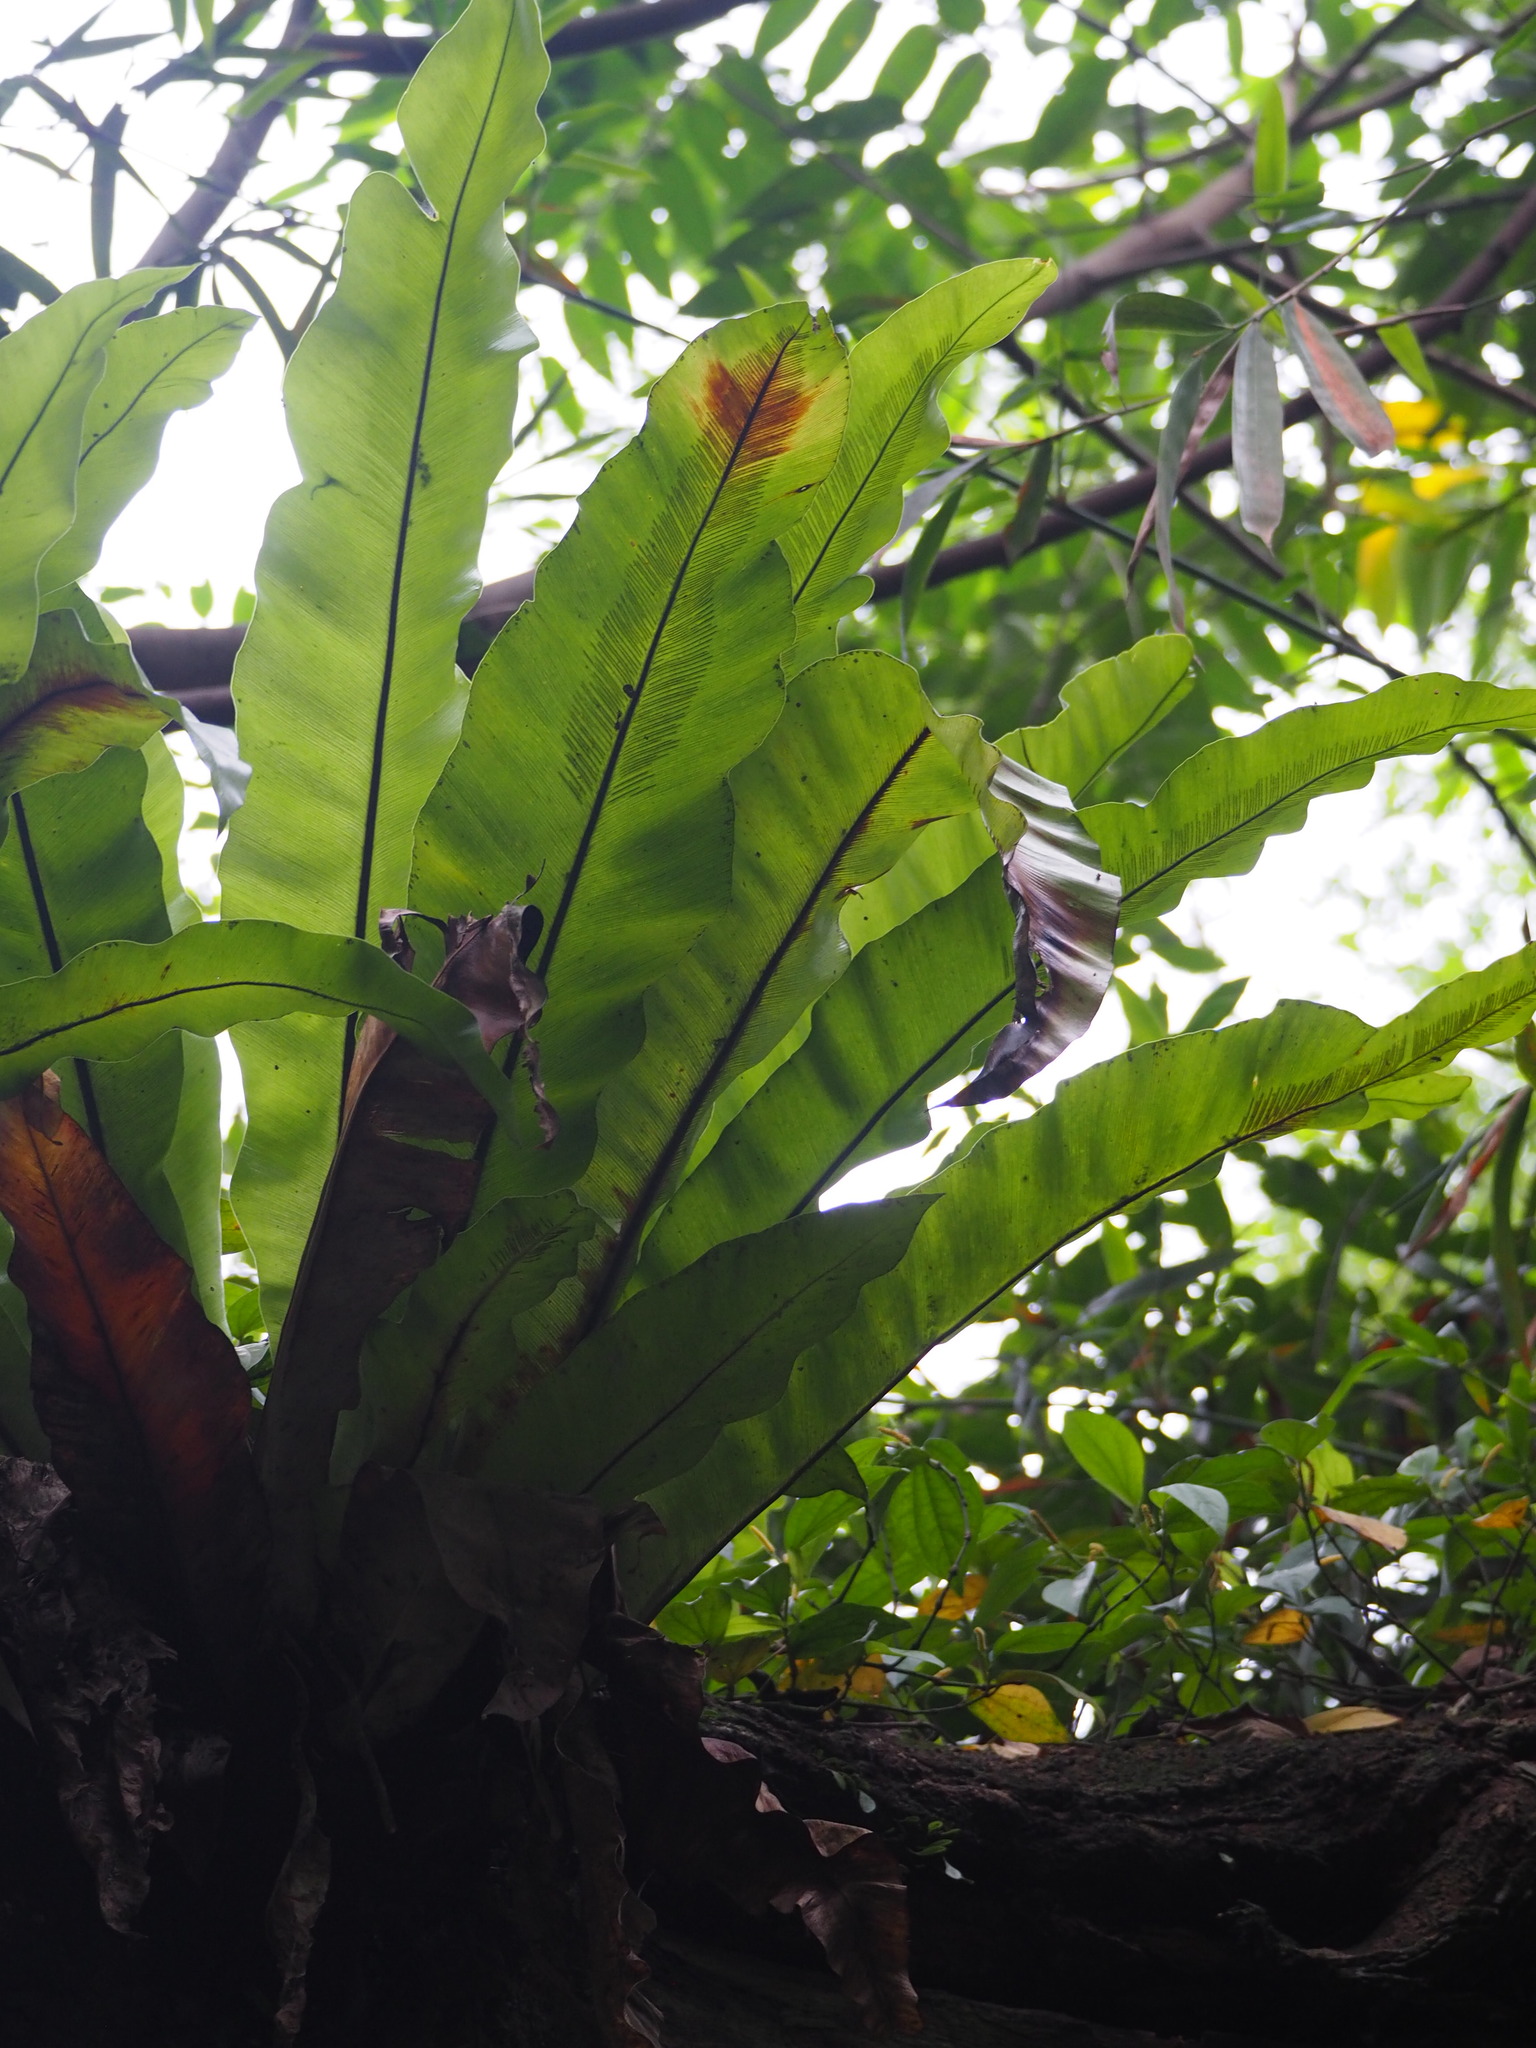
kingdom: Plantae
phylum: Tracheophyta
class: Polypodiopsida
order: Polypodiales
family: Aspleniaceae
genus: Asplenium
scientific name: Asplenium nidus
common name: Bird's-nest fern
